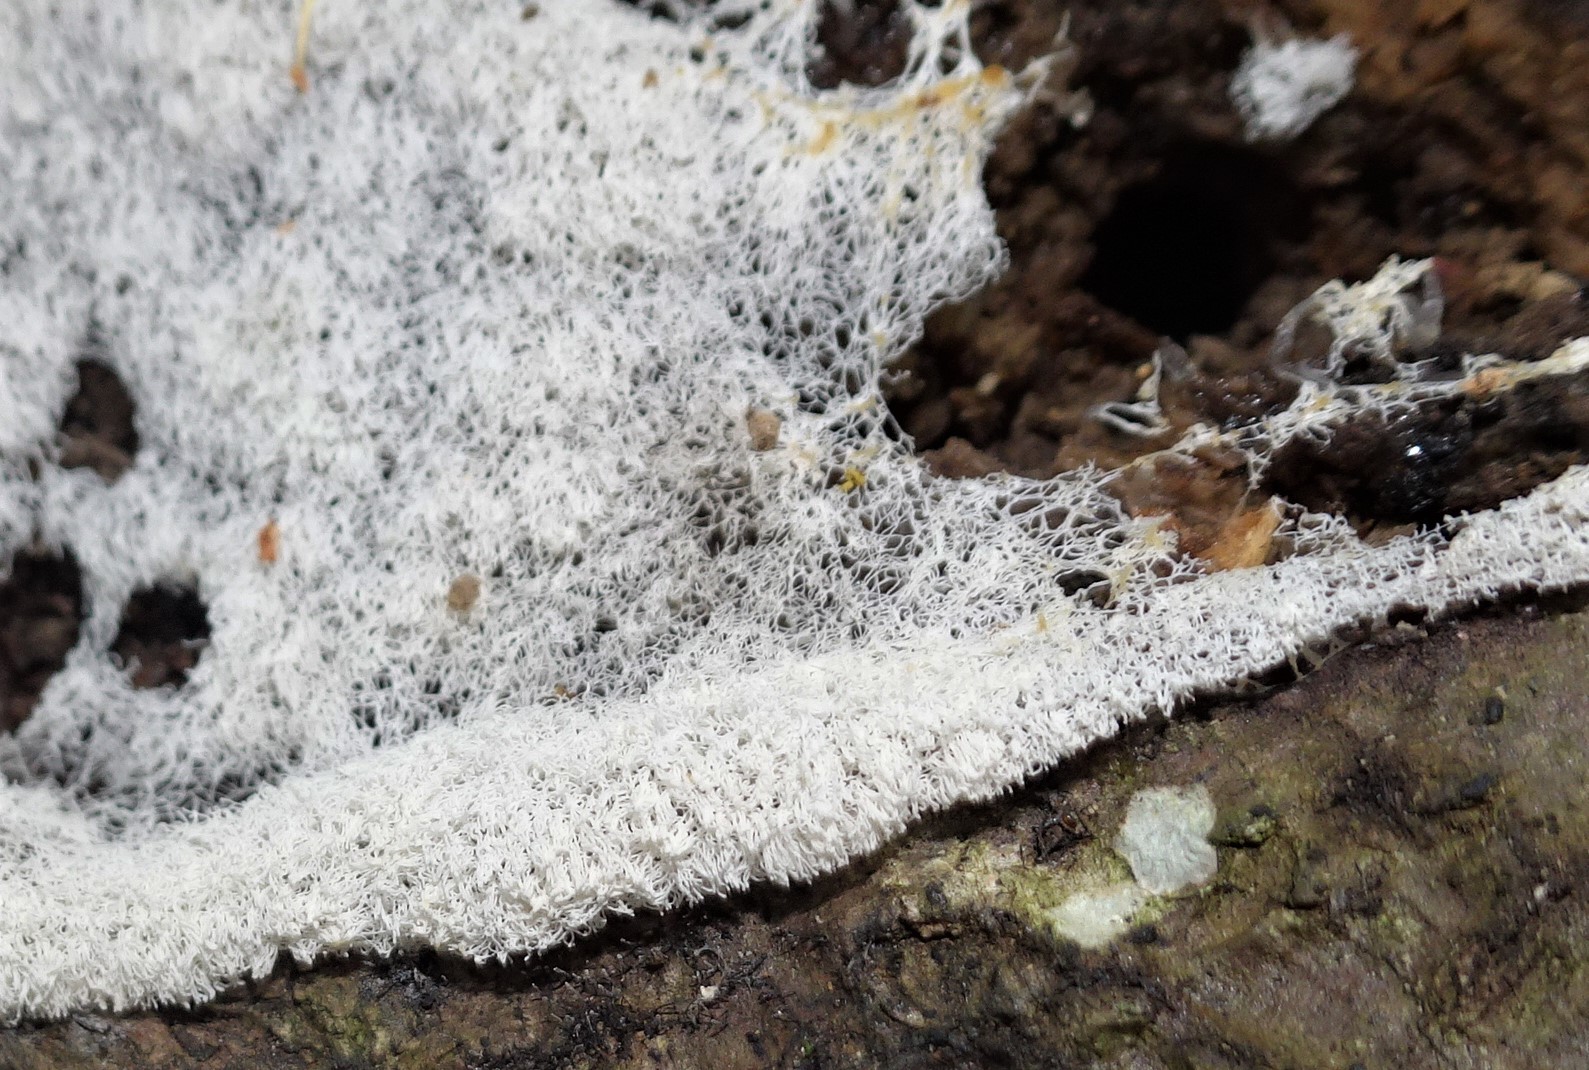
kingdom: Protozoa
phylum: Mycetozoa
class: Protosteliomycetes
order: Ceratiomyxales
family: Ceratiomyxaceae
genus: Ceratiomyxa
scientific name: Ceratiomyxa fruticulosa
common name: Honeycomb coral slime mold
